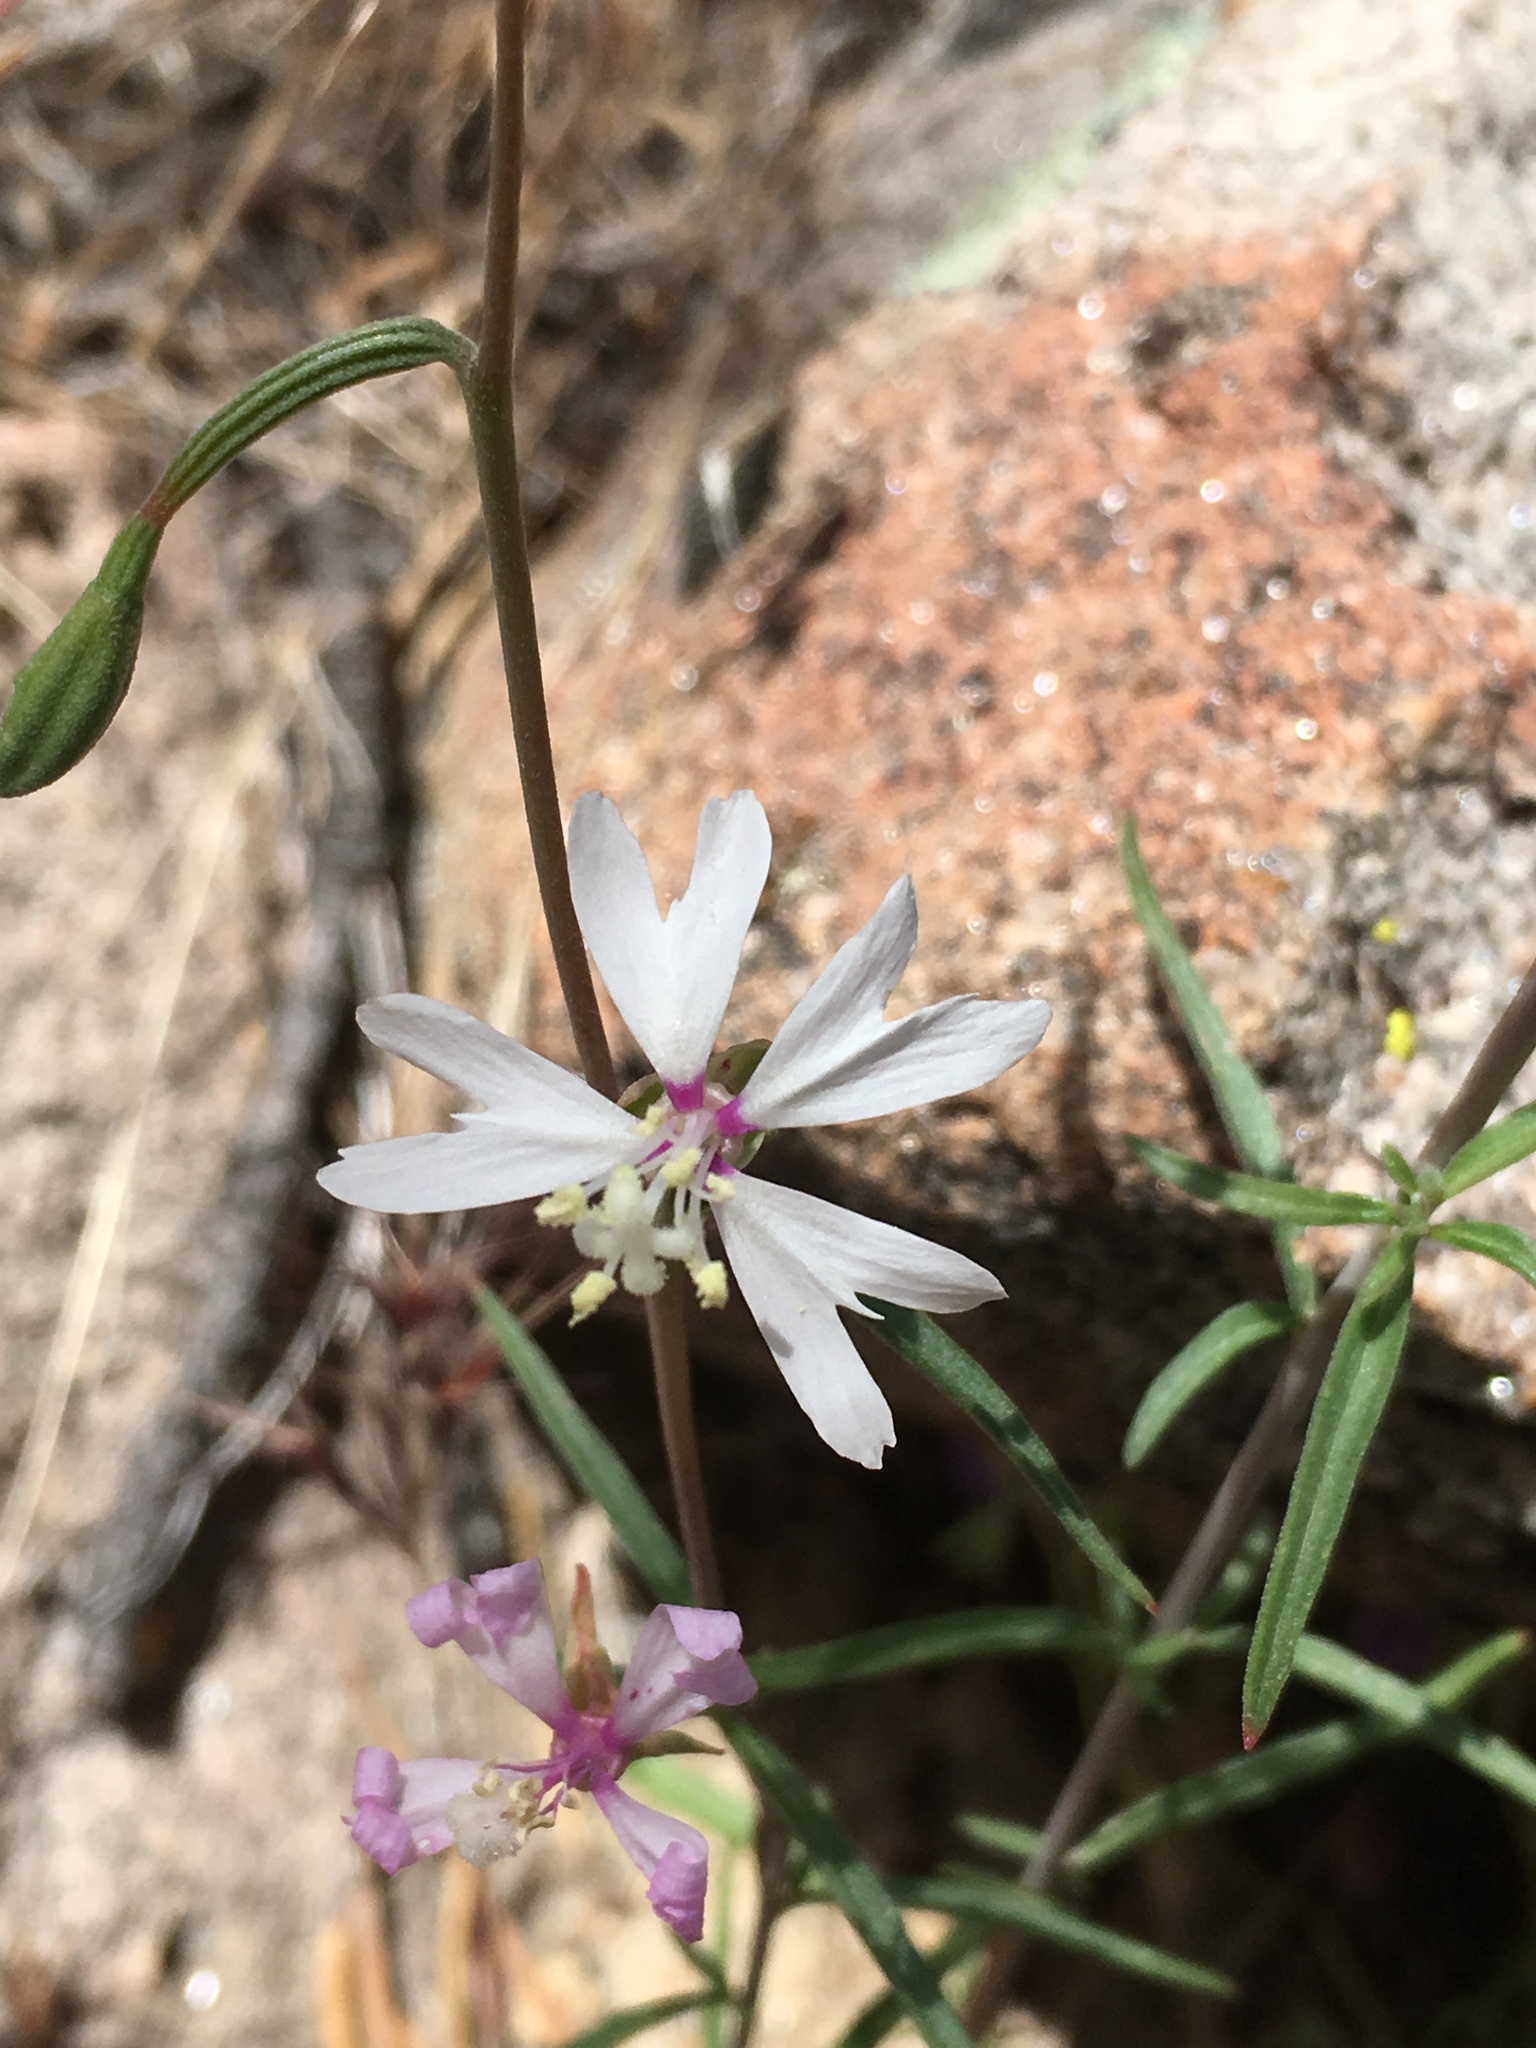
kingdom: Plantae
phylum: Tracheophyta
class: Magnoliopsida
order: Myrtales
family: Onagraceae
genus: Clarkia
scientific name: Clarkia xantiana
